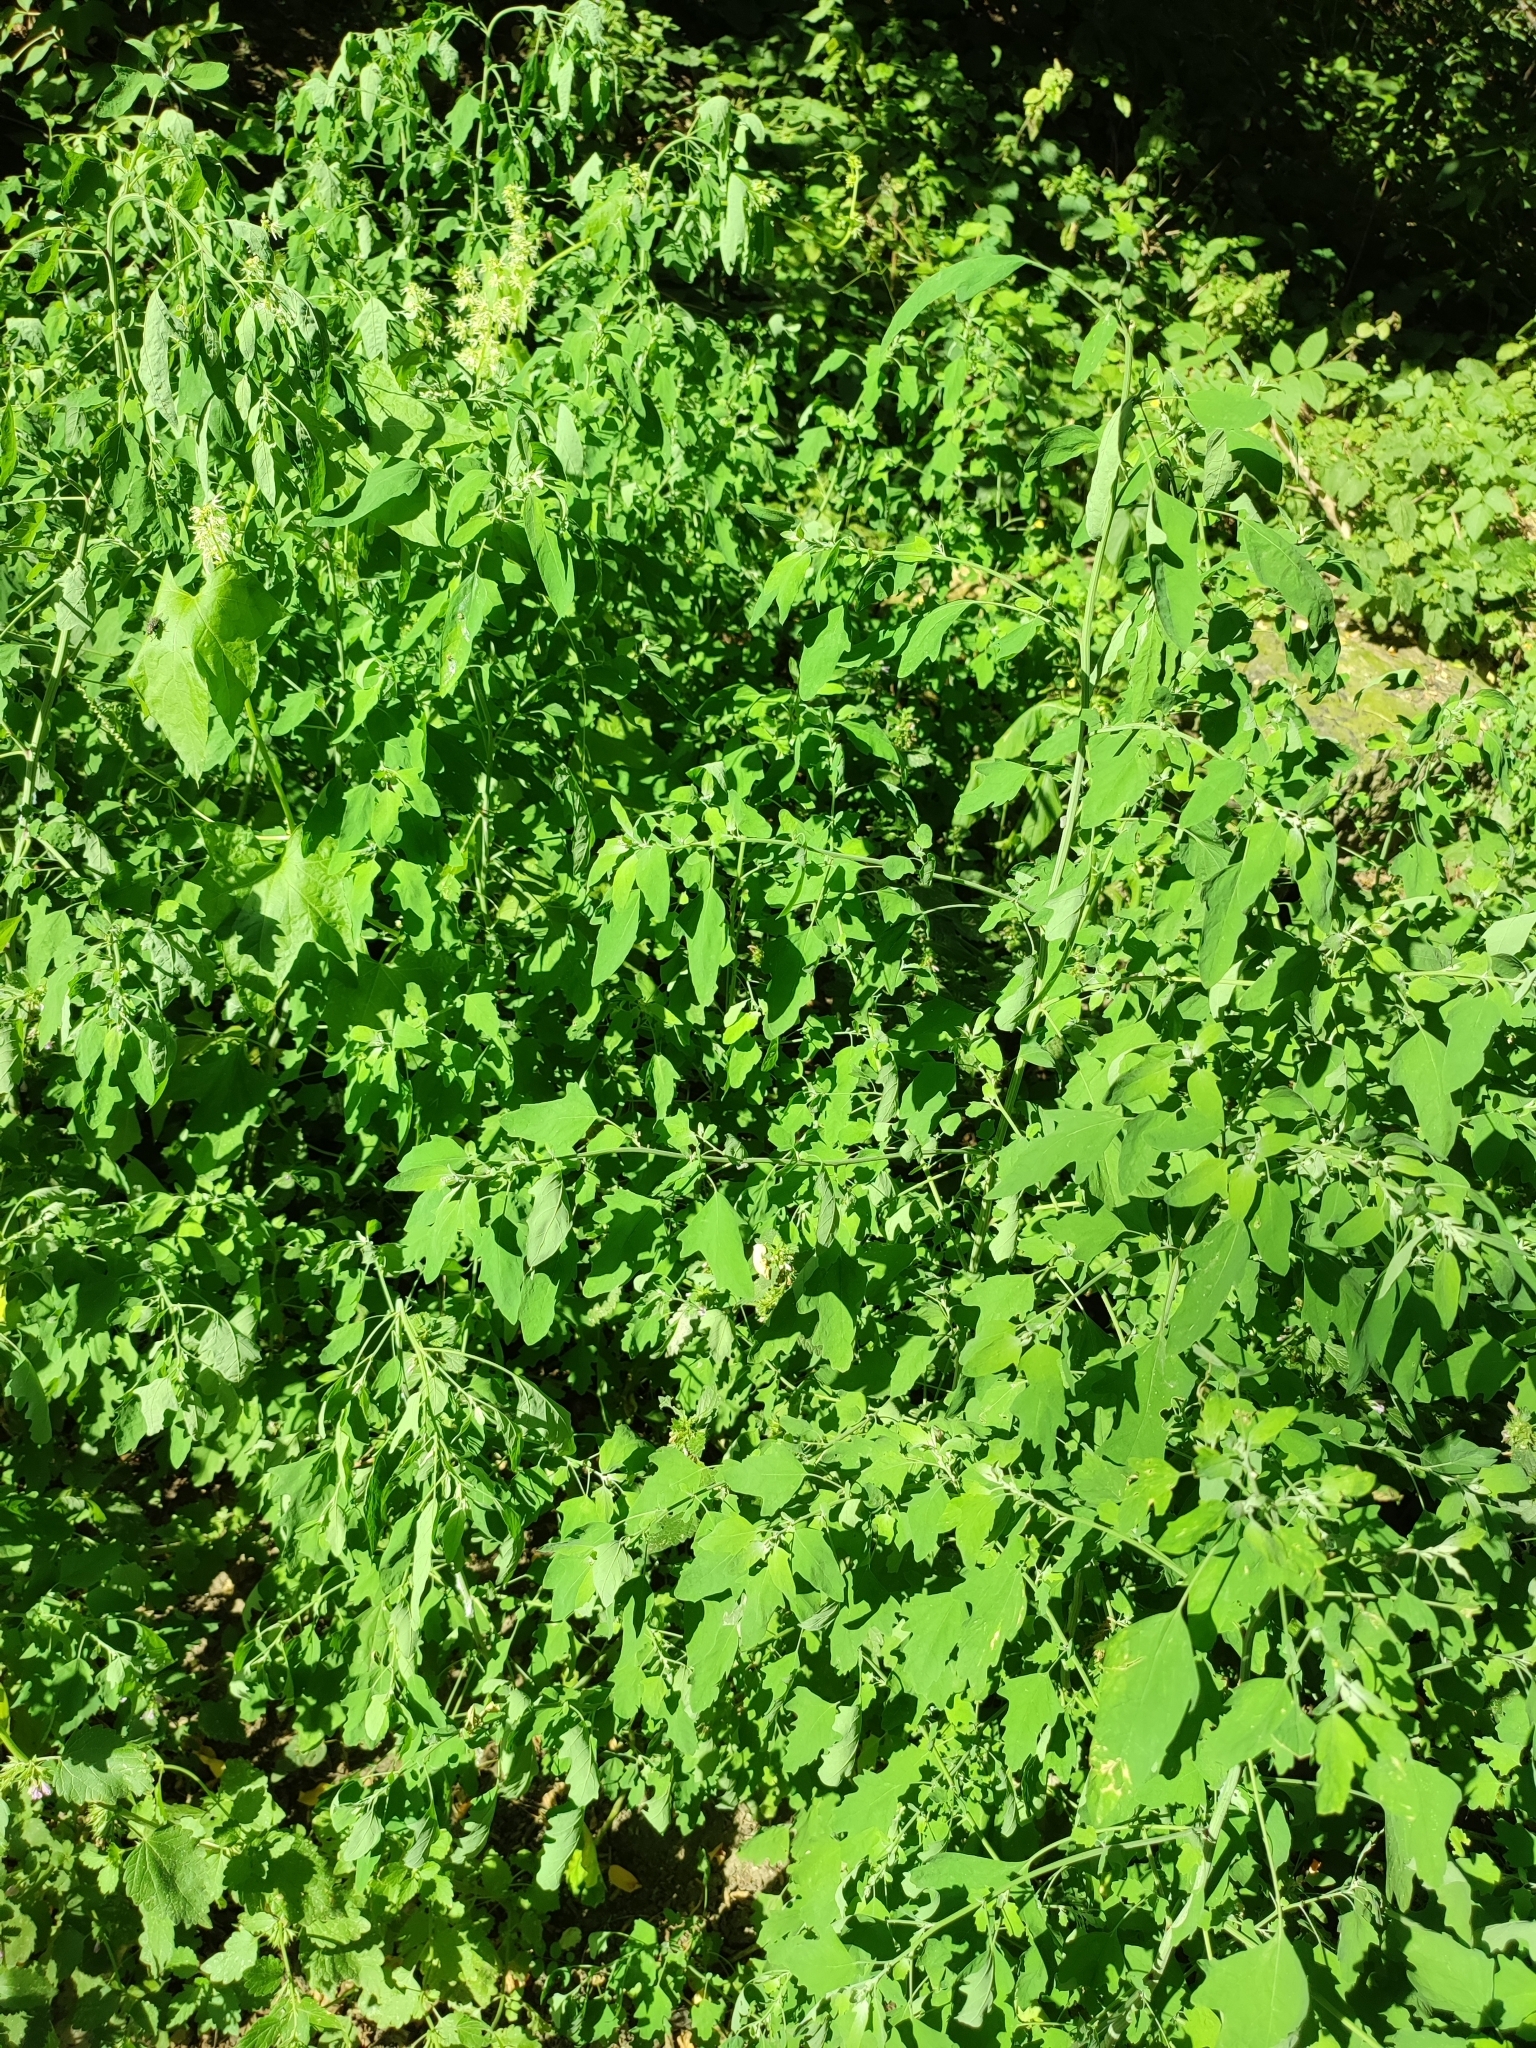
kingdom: Plantae
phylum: Tracheophyta
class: Magnoliopsida
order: Caryophyllales
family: Amaranthaceae
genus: Chenopodium
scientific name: Chenopodium ucrainicum
